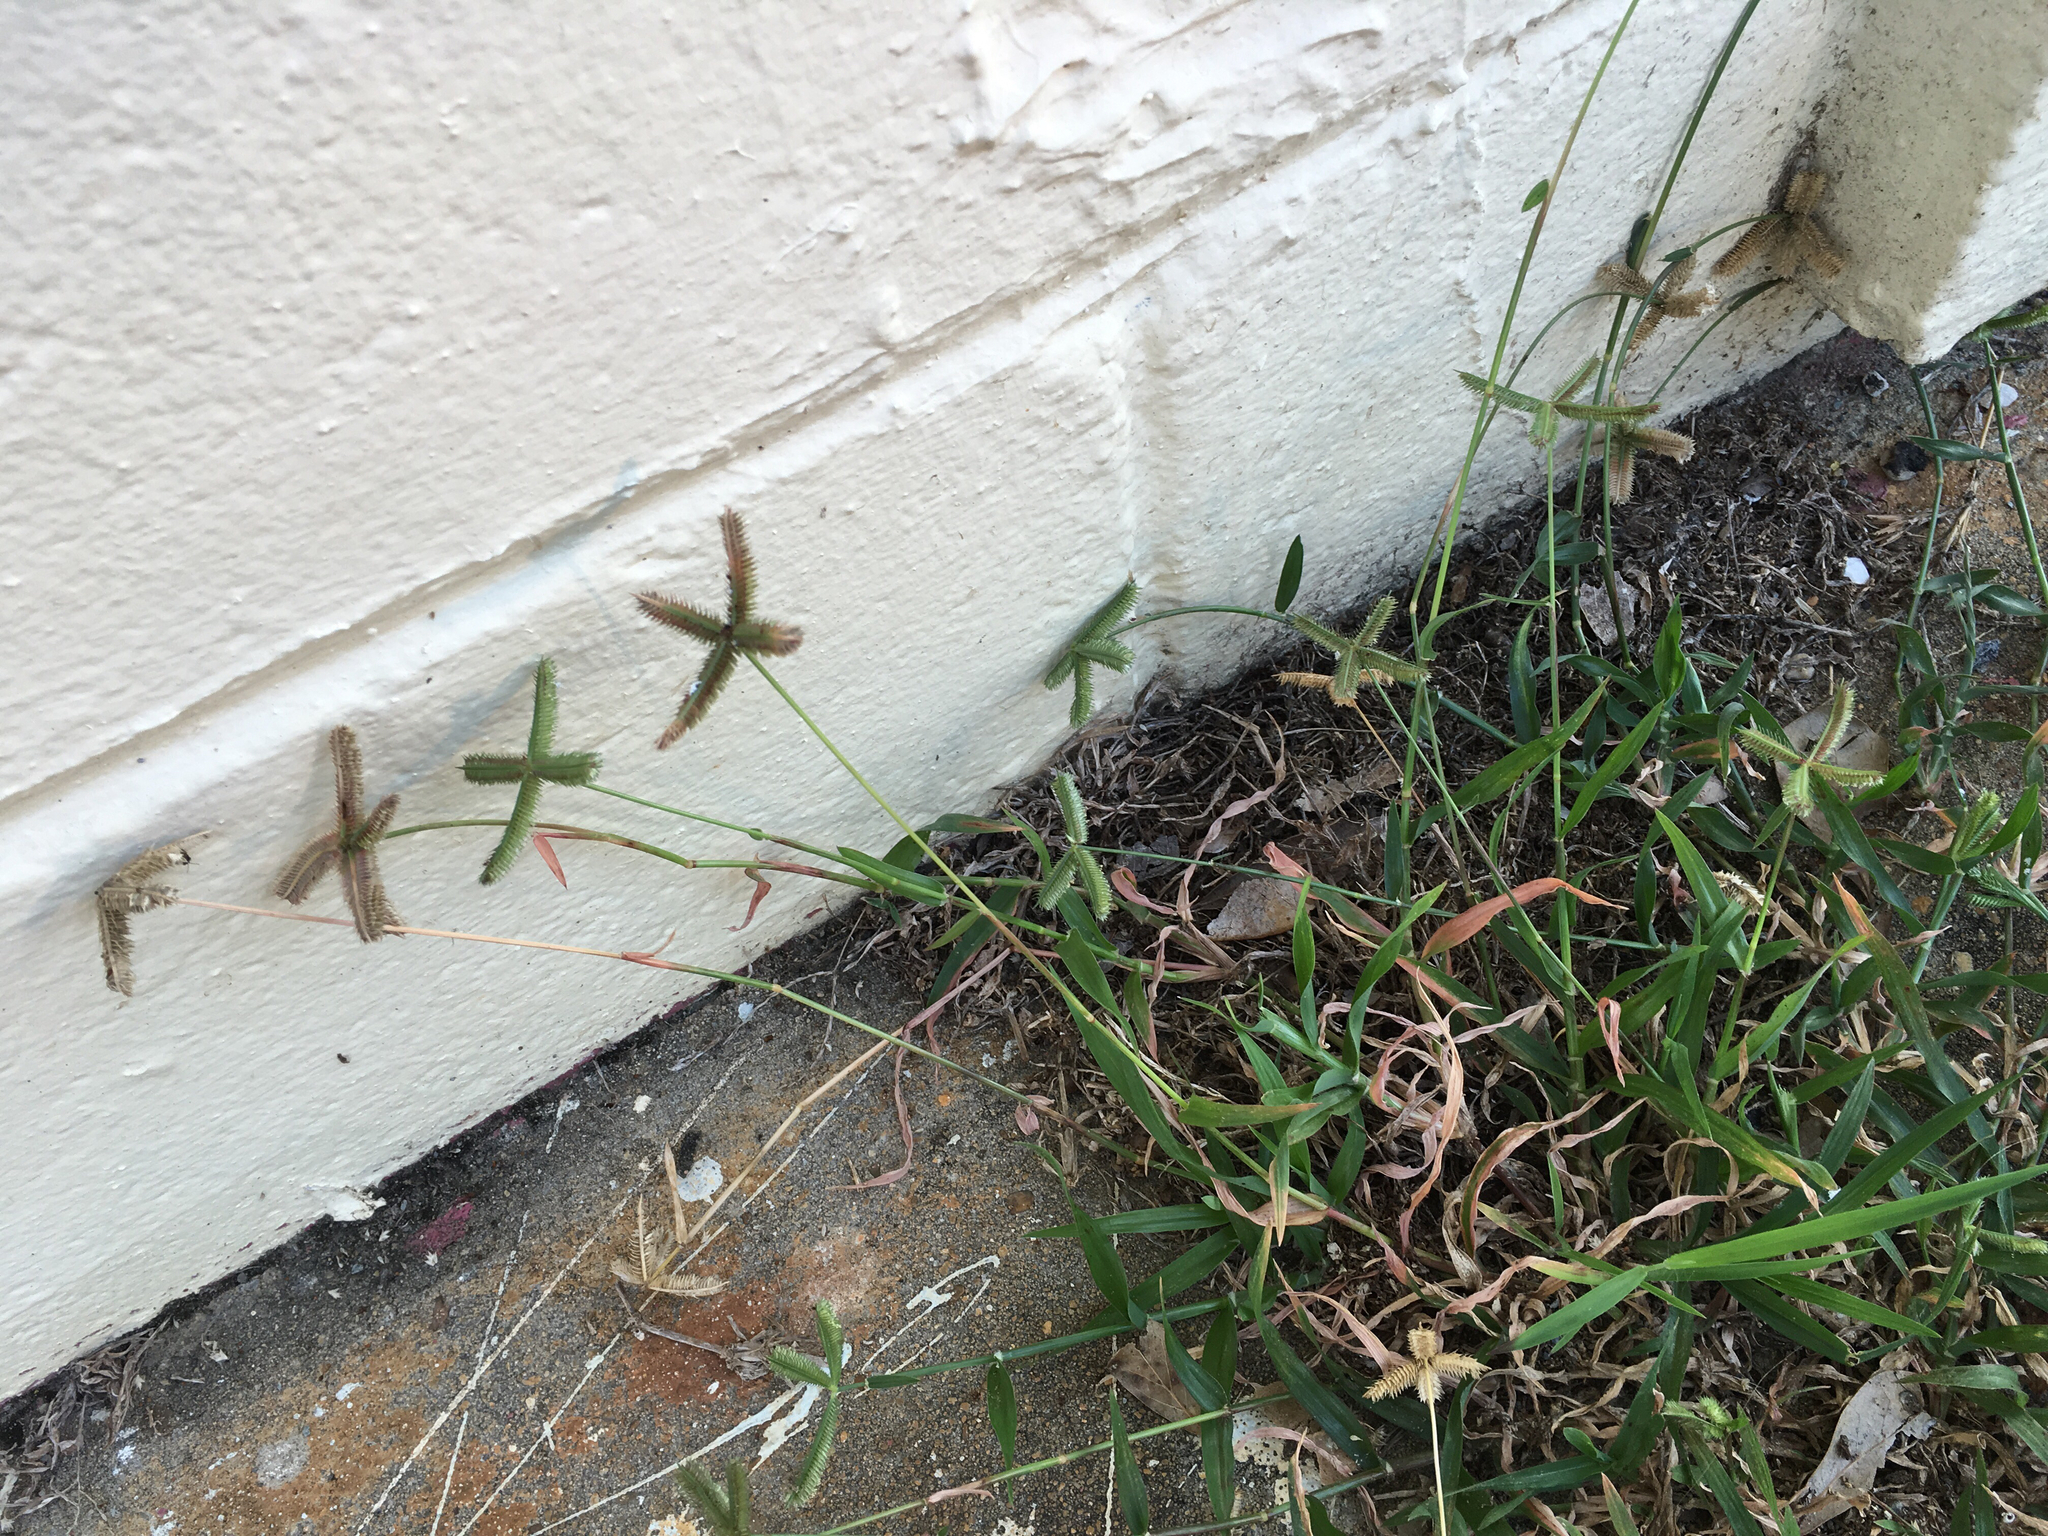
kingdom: Plantae
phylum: Tracheophyta
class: Liliopsida
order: Poales
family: Poaceae
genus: Dactyloctenium
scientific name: Dactyloctenium aegyptium
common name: Egyptian grass
